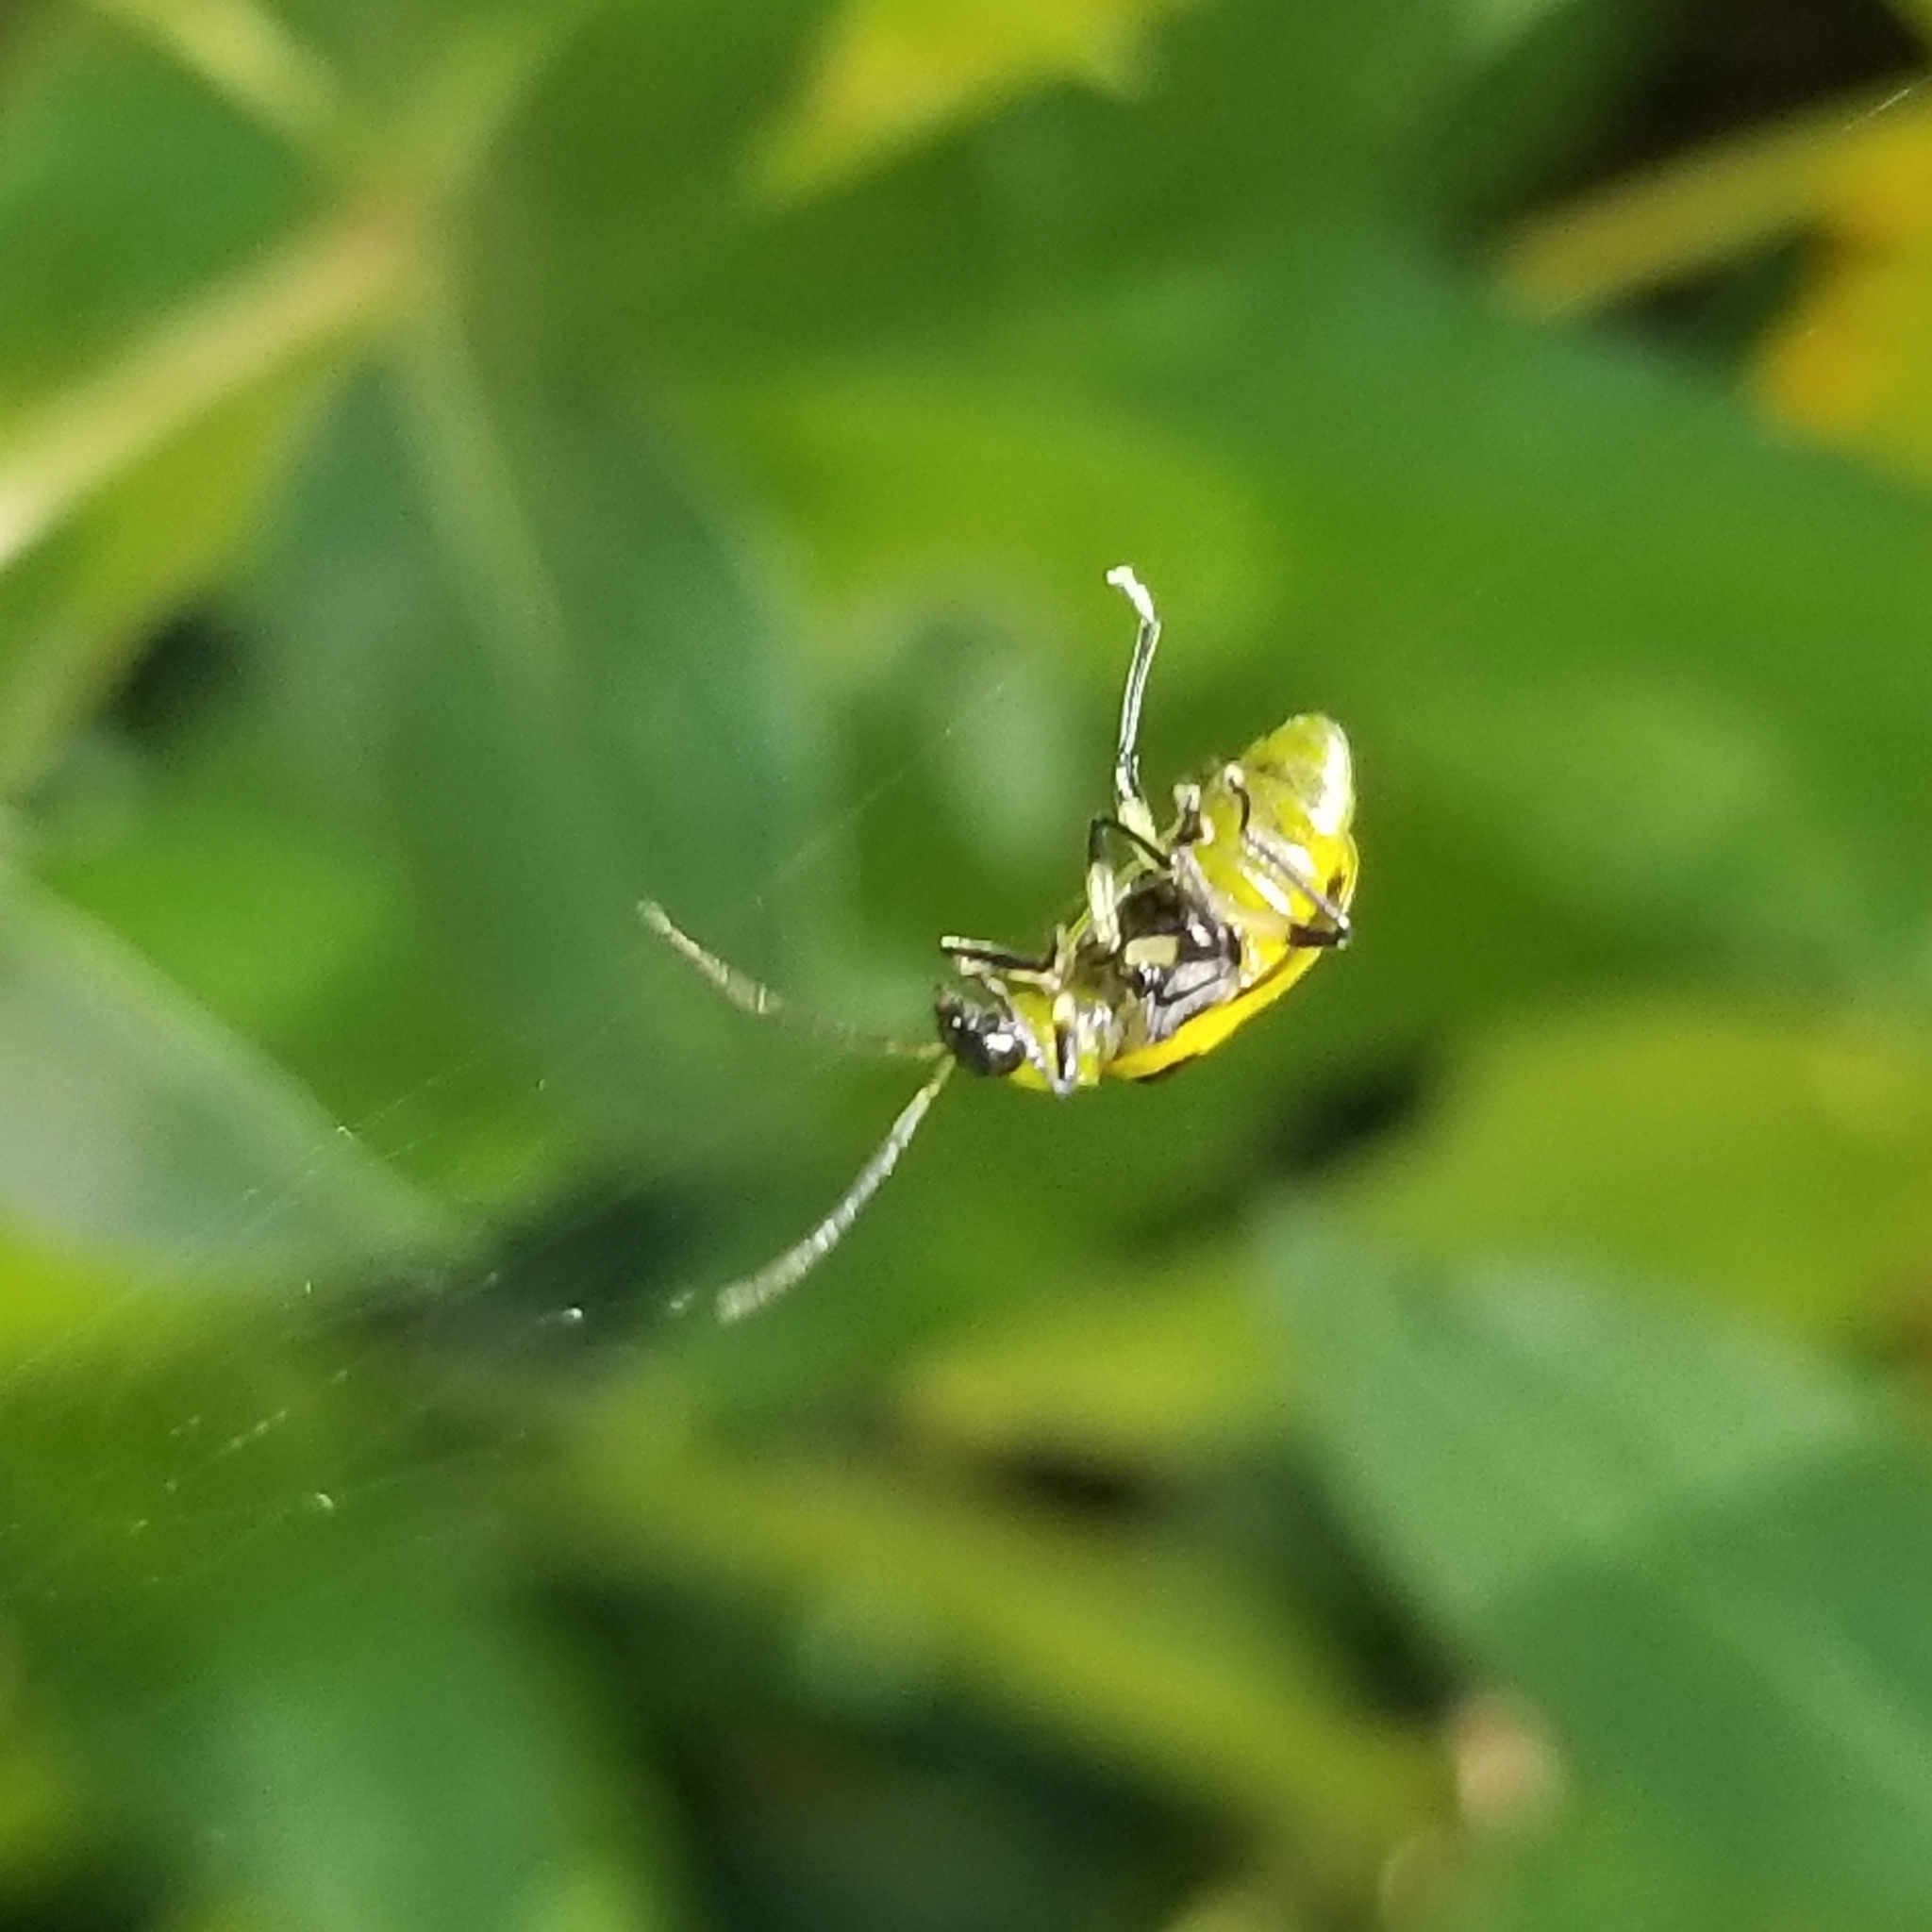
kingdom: Animalia
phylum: Arthropoda
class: Insecta
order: Coleoptera
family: Chrysomelidae
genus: Diabrotica
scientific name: Diabrotica undecimpunctata
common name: Spotted cucumber beetle
